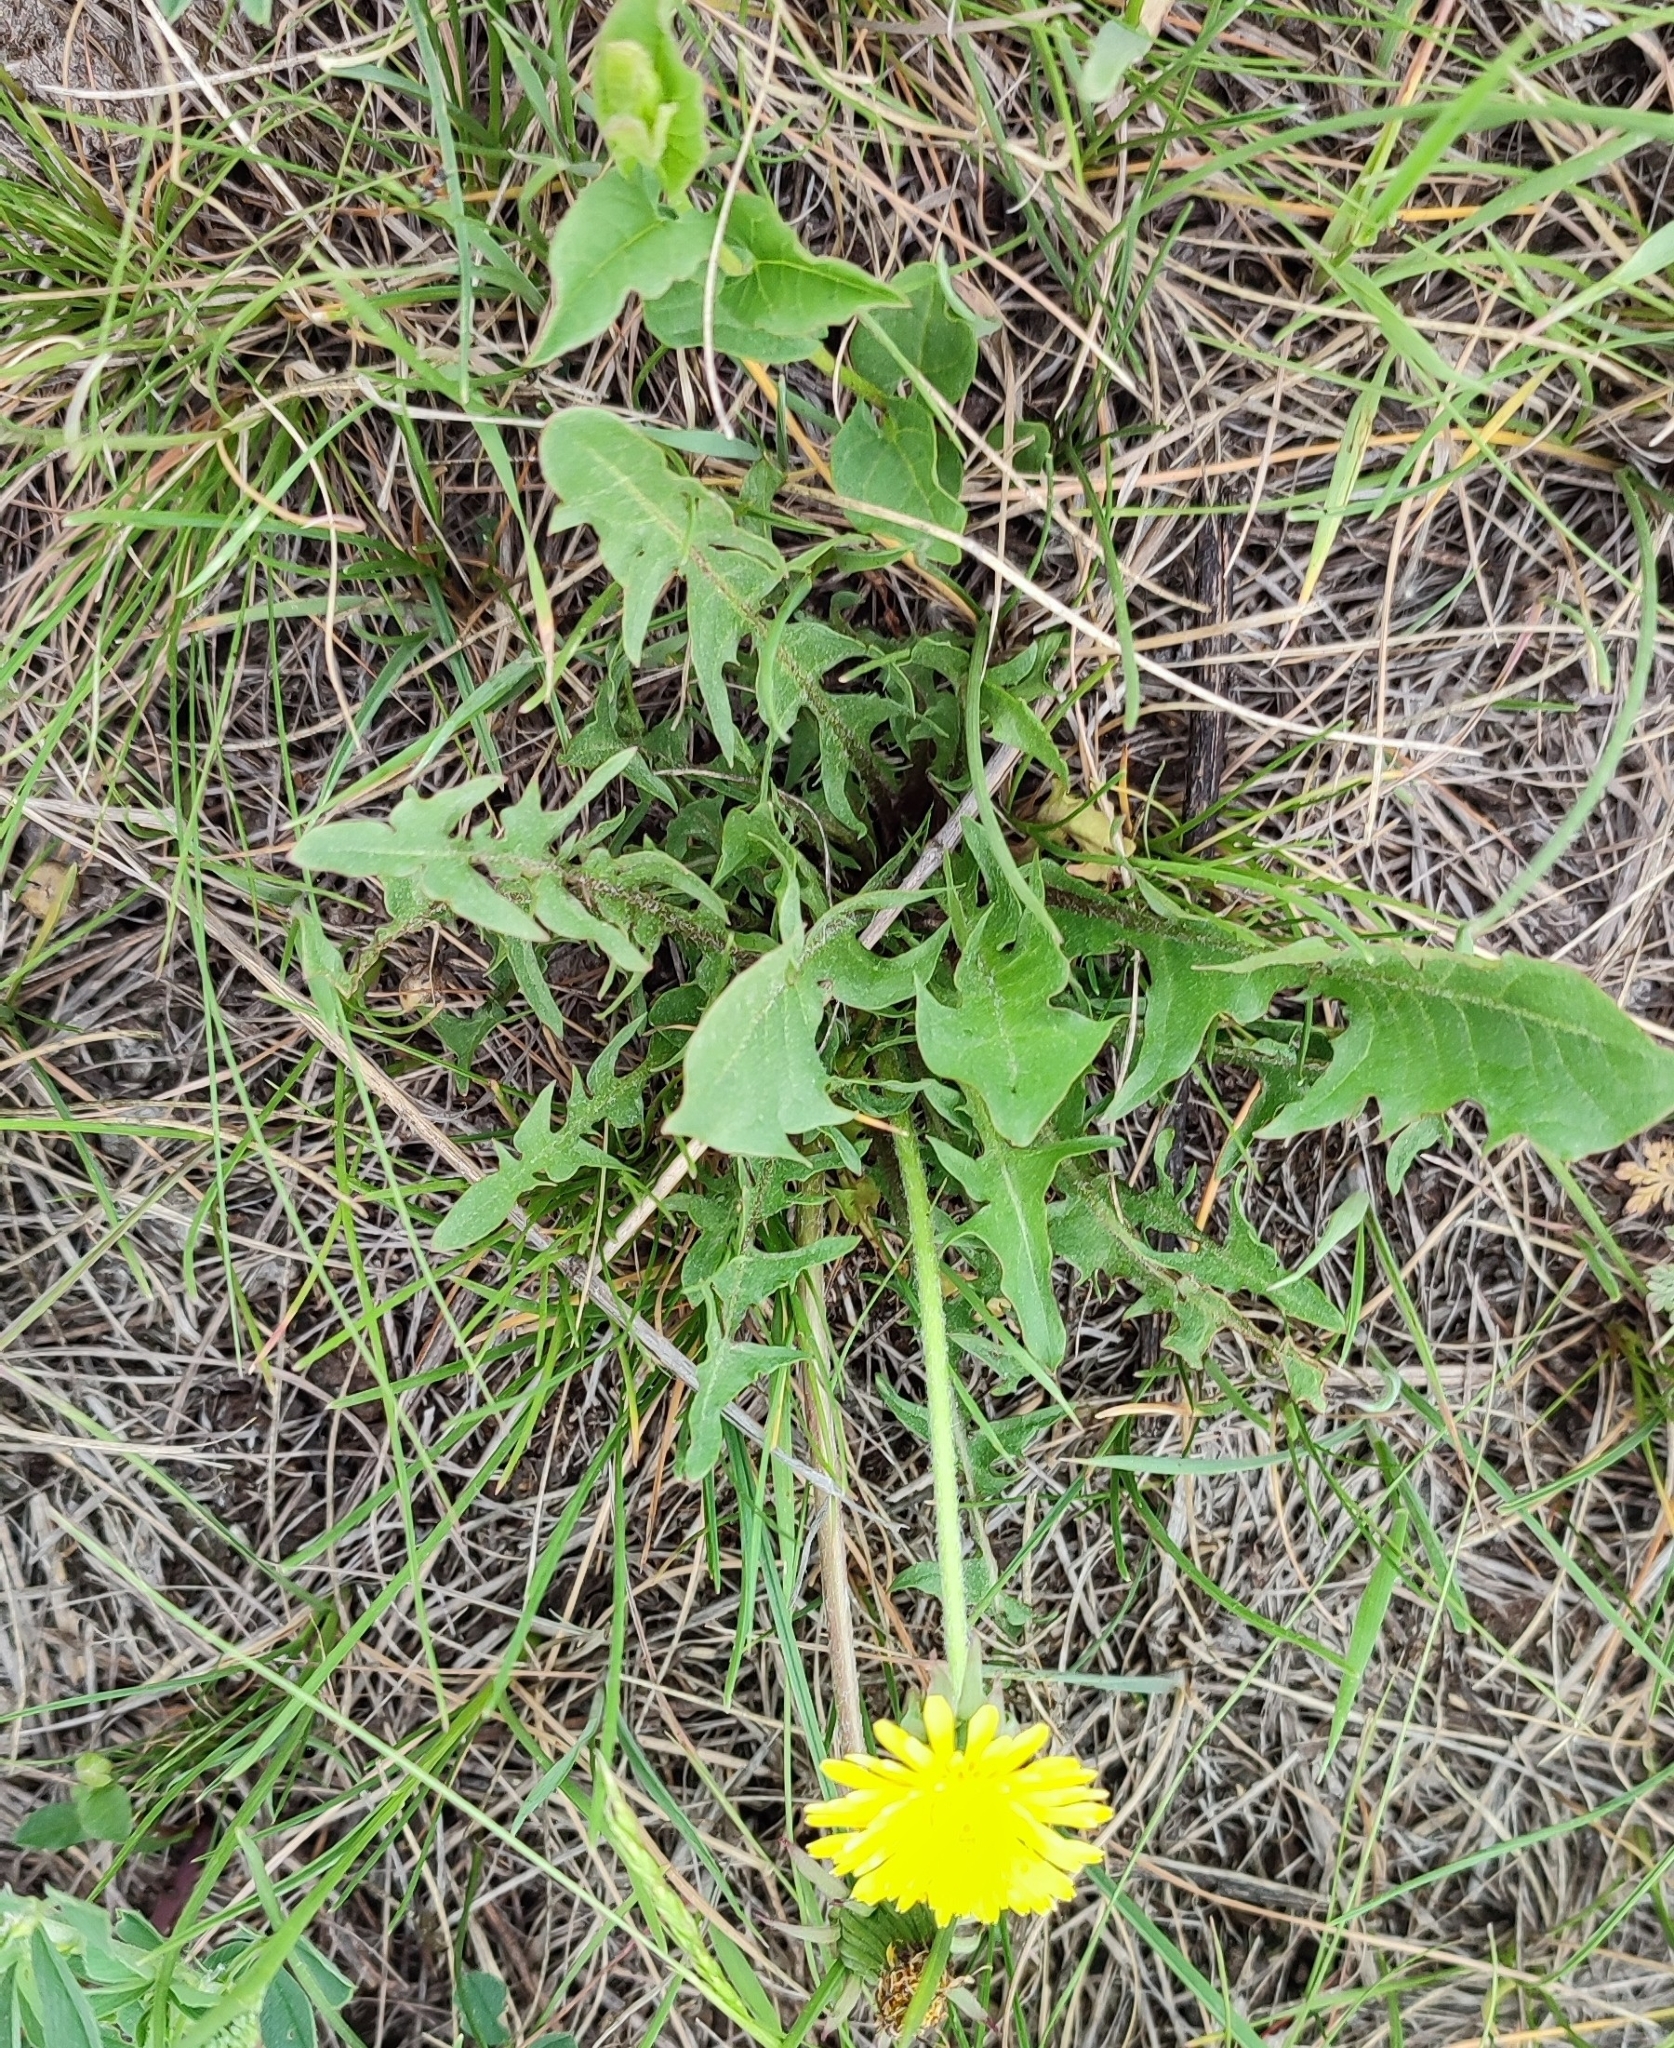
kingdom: Plantae
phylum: Tracheophyta
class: Magnoliopsida
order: Asterales
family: Asteraceae
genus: Taraxacum
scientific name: Taraxacum officinale
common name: Common dandelion
